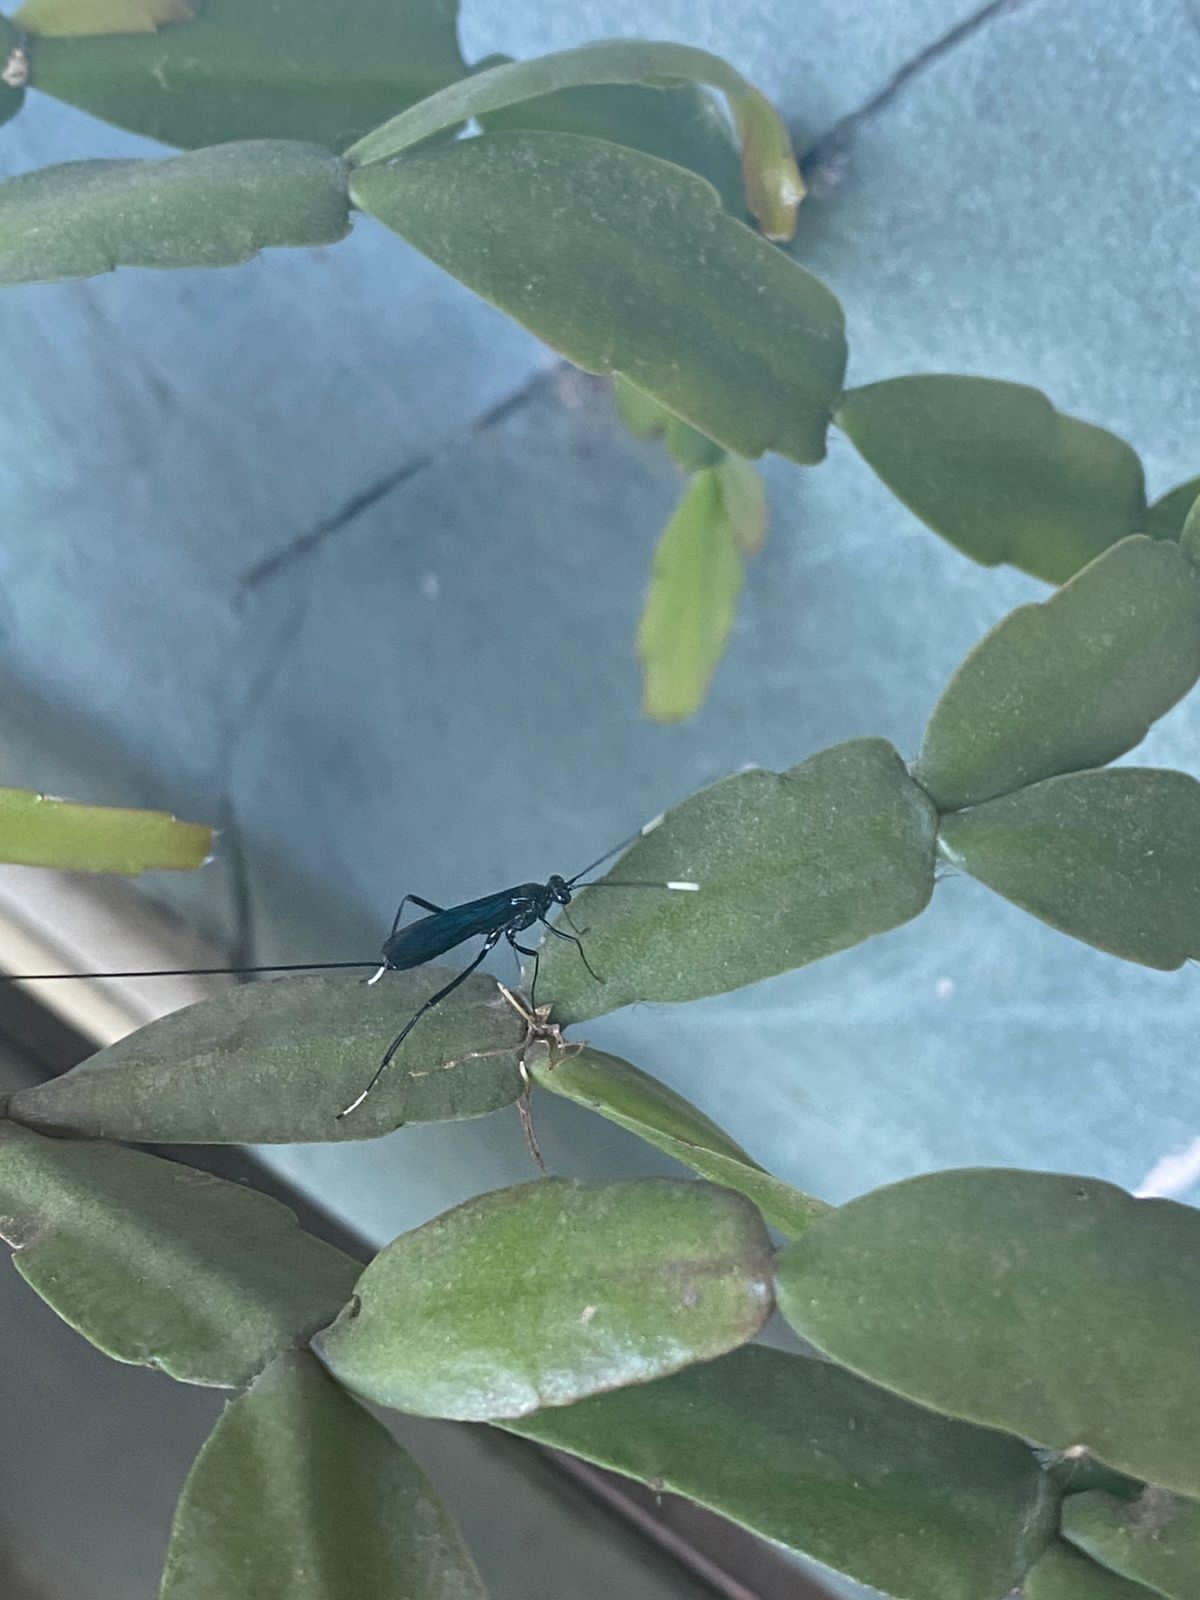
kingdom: Animalia
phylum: Arthropoda
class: Insecta
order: Hymenoptera
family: Ichneumonidae
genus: Dotocryptus
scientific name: Dotocryptus bellicosus
